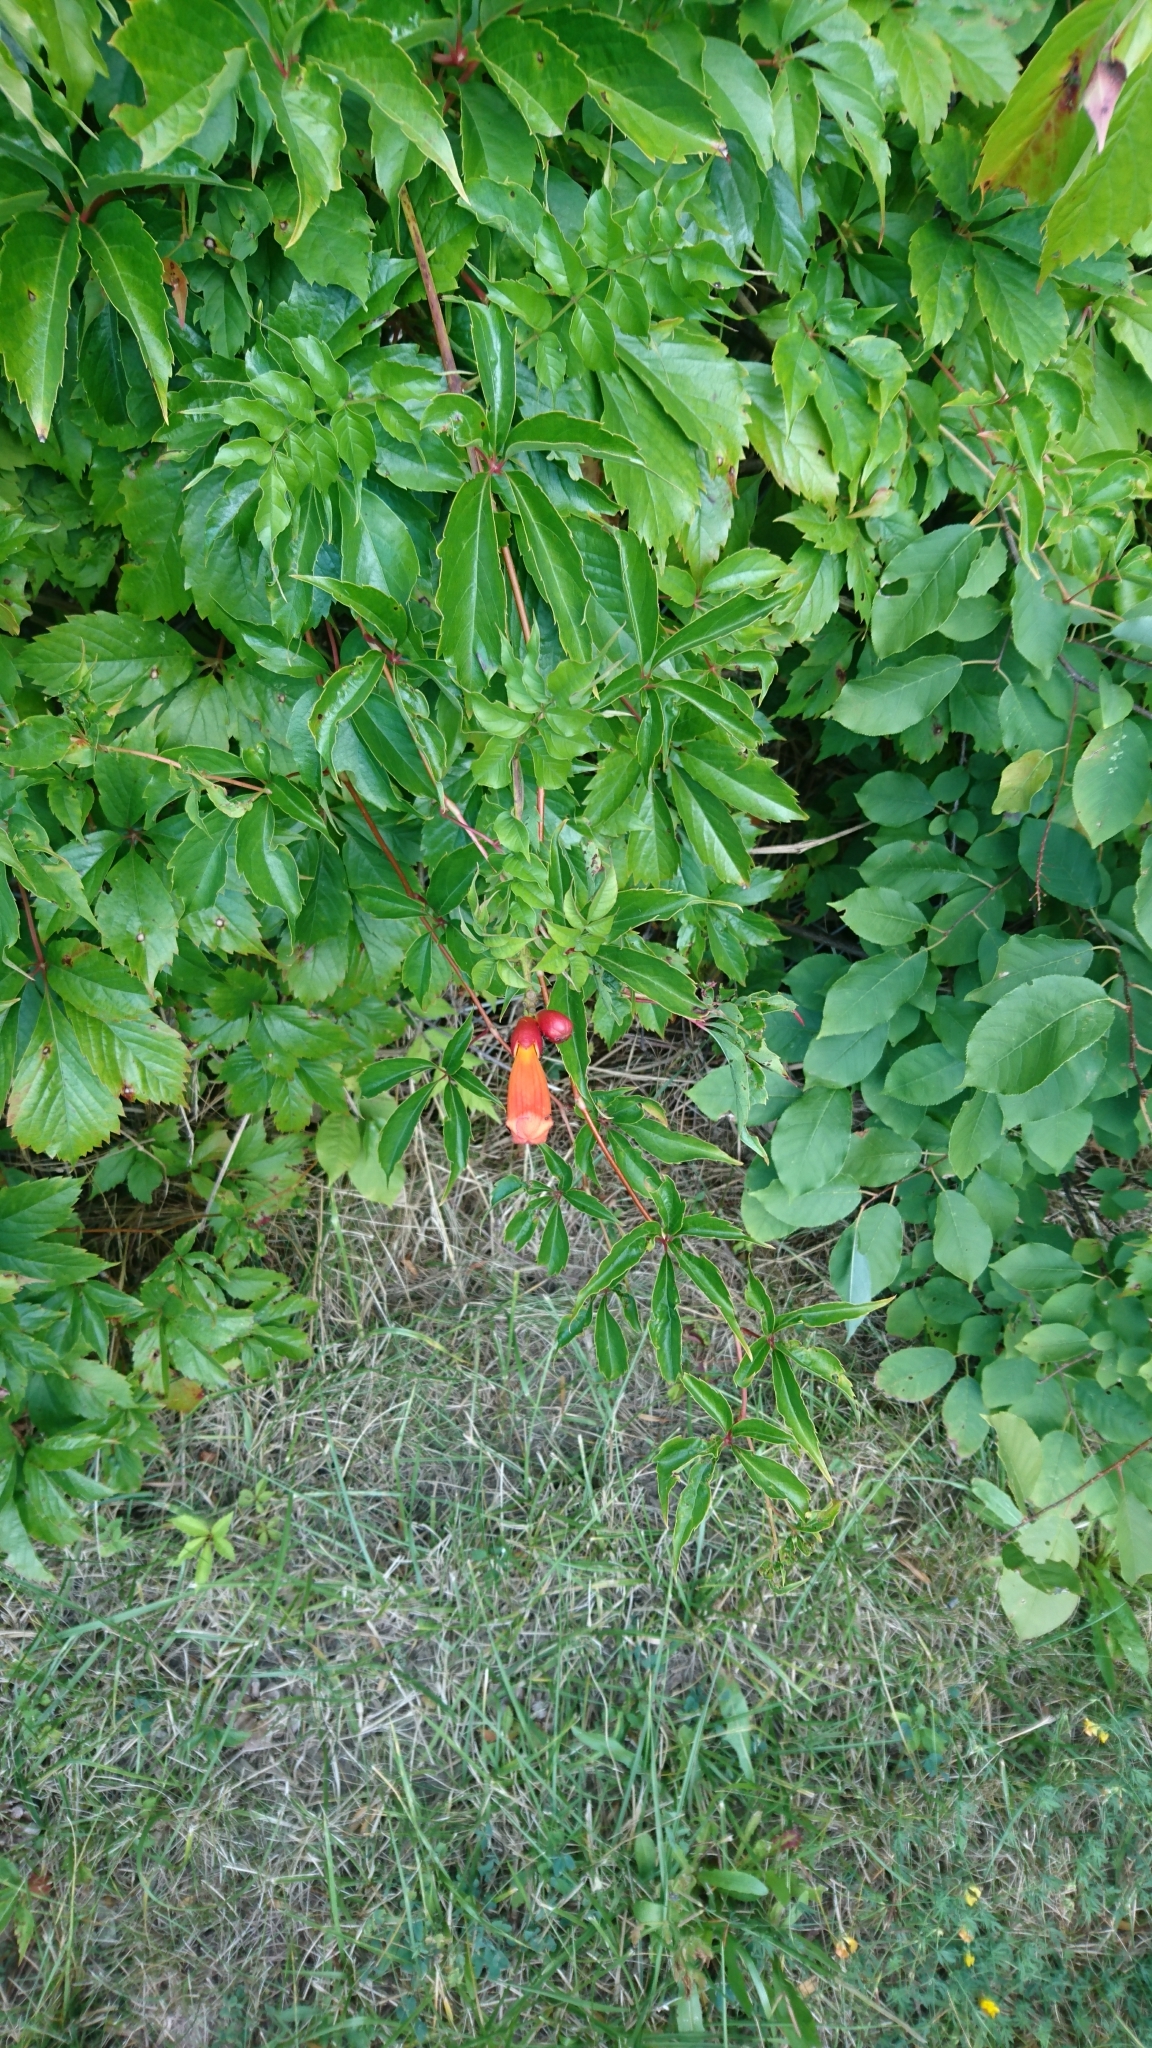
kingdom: Plantae
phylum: Tracheophyta
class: Magnoliopsida
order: Lamiales
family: Bignoniaceae
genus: Campsis
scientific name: Campsis radicans
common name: Trumpet-creeper
